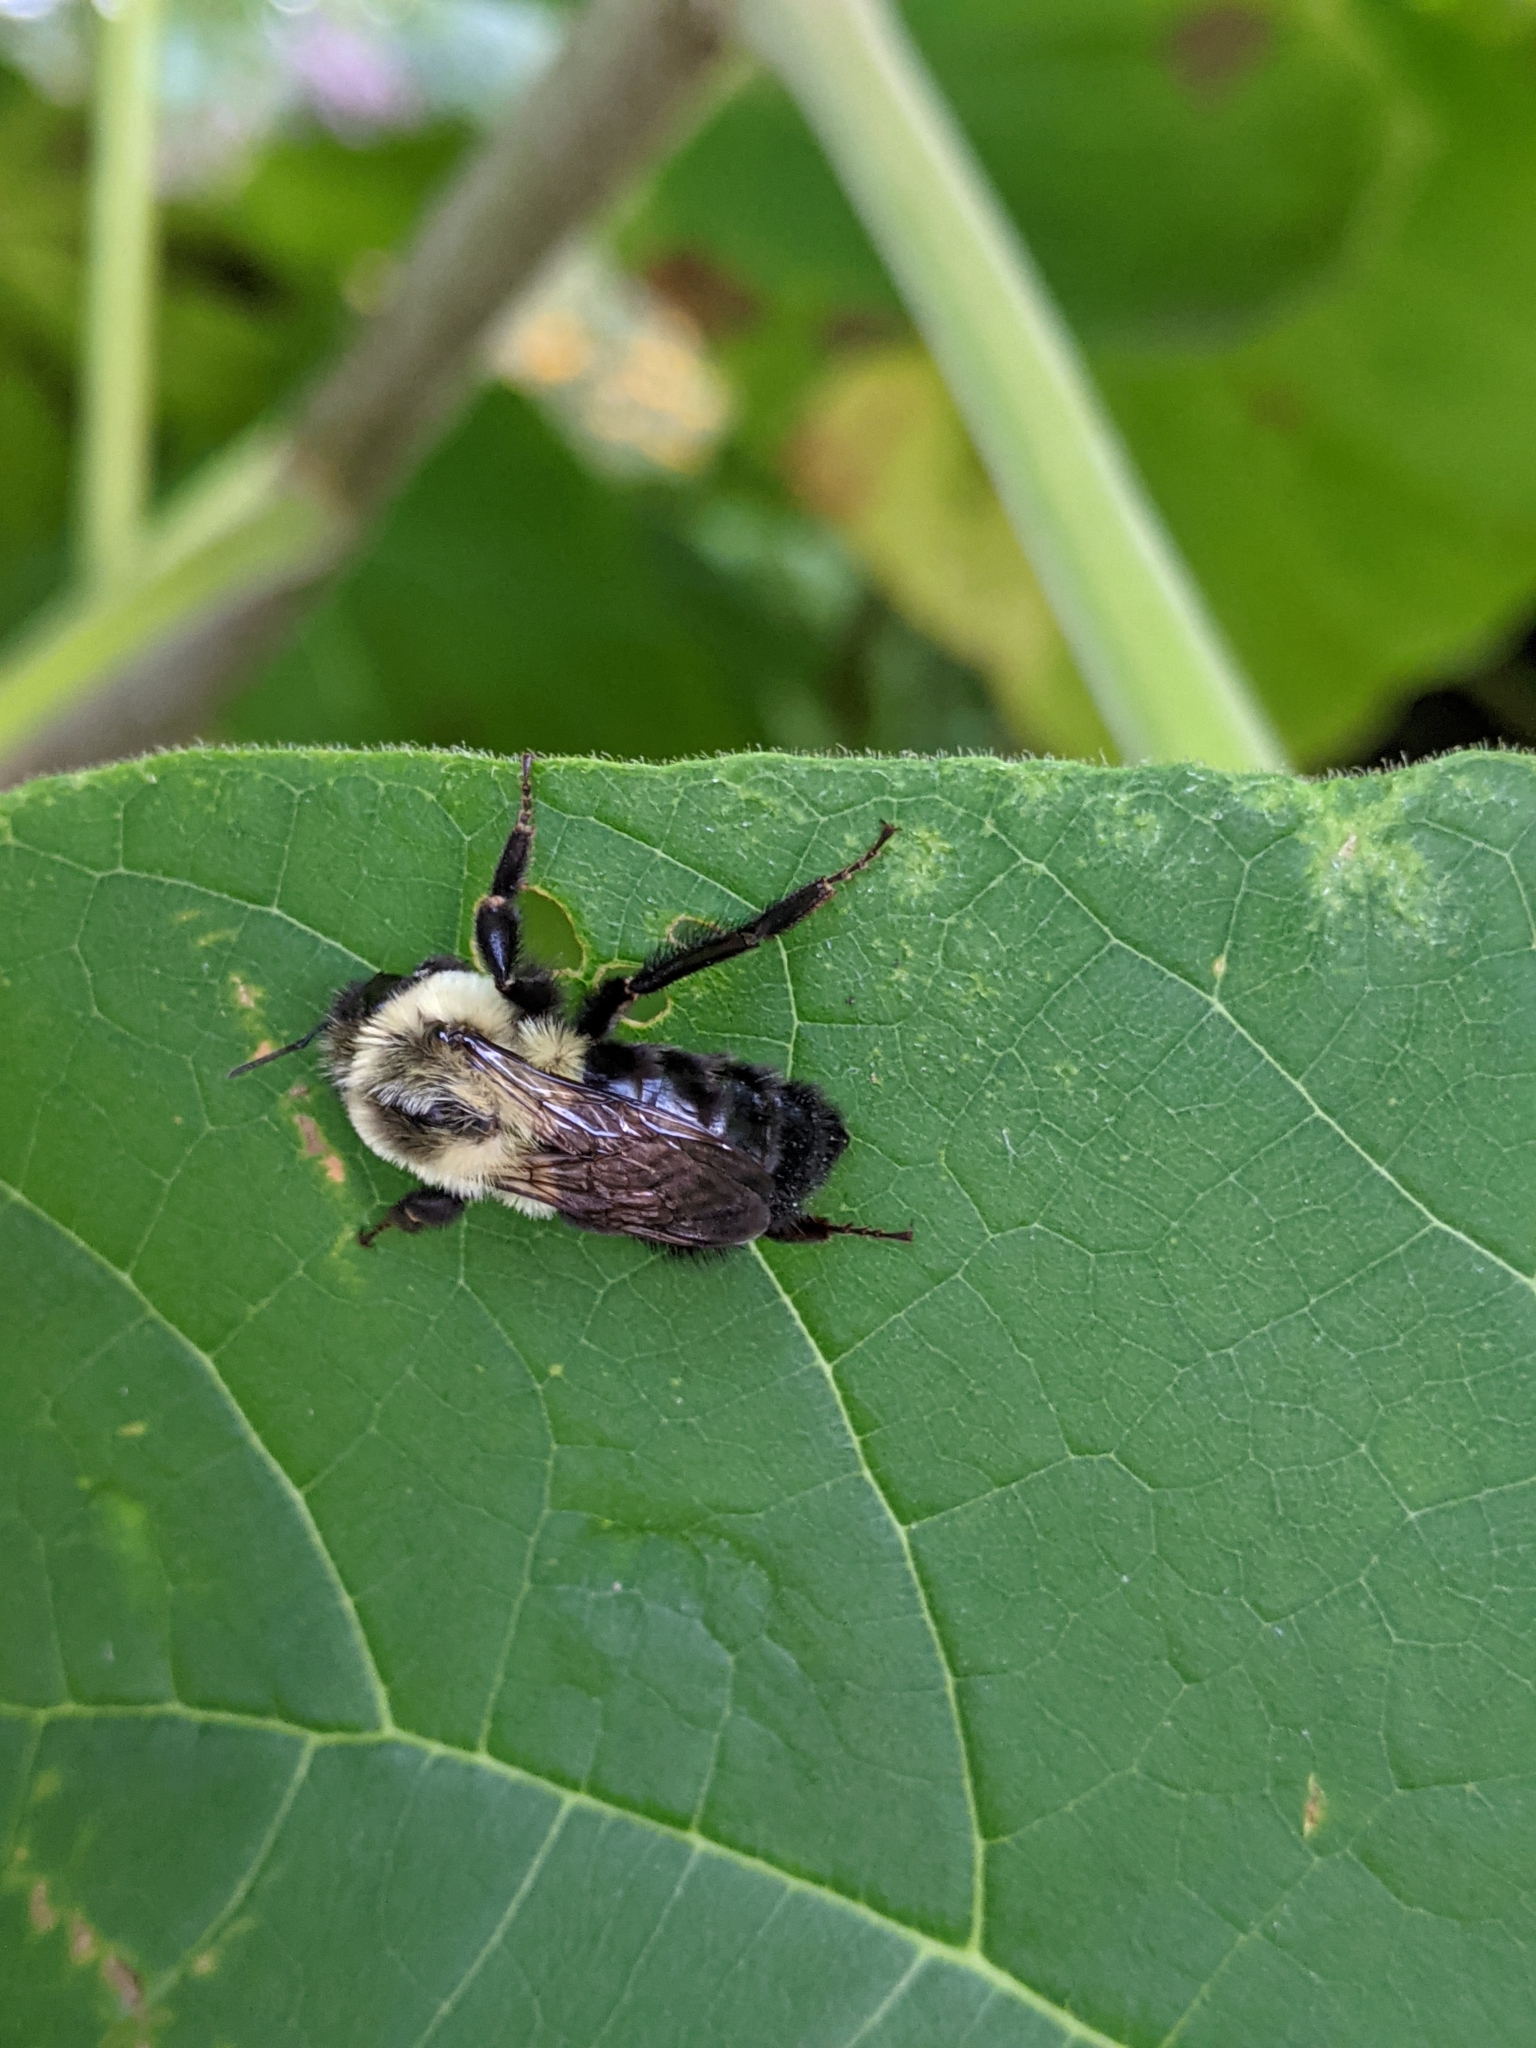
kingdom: Animalia
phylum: Arthropoda
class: Insecta
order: Hymenoptera
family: Apidae
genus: Bombus
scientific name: Bombus impatiens
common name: Common eastern bumble bee
